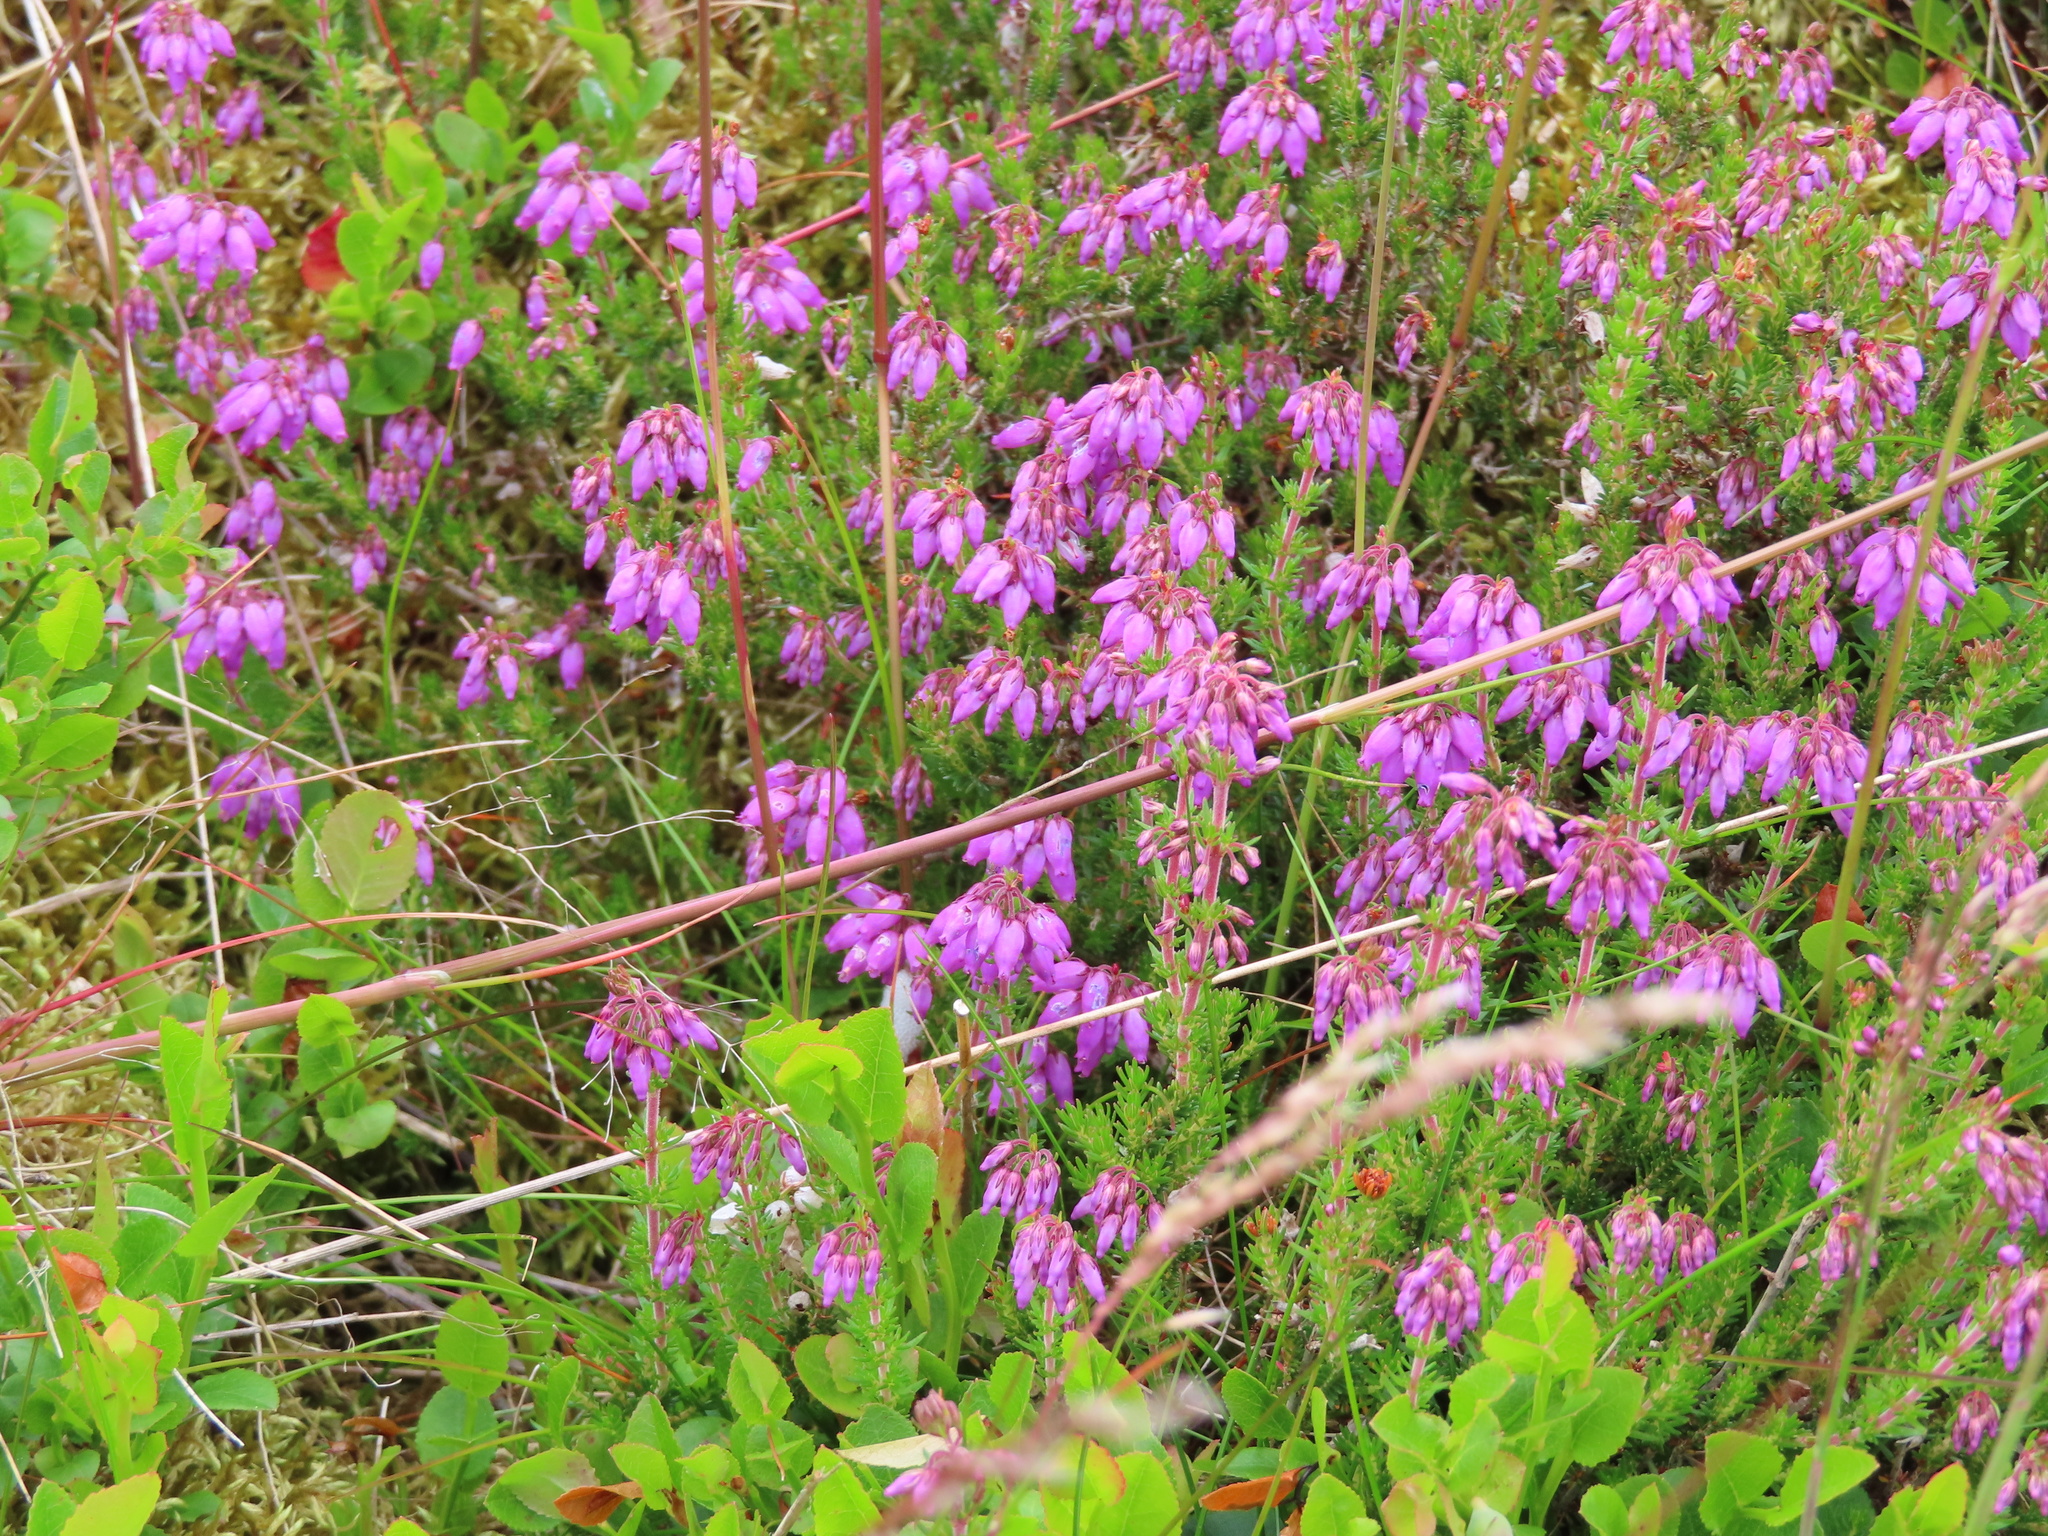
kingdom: Plantae
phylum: Tracheophyta
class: Magnoliopsida
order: Ericales
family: Ericaceae
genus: Erica
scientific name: Erica cinerea
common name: Bell heather
